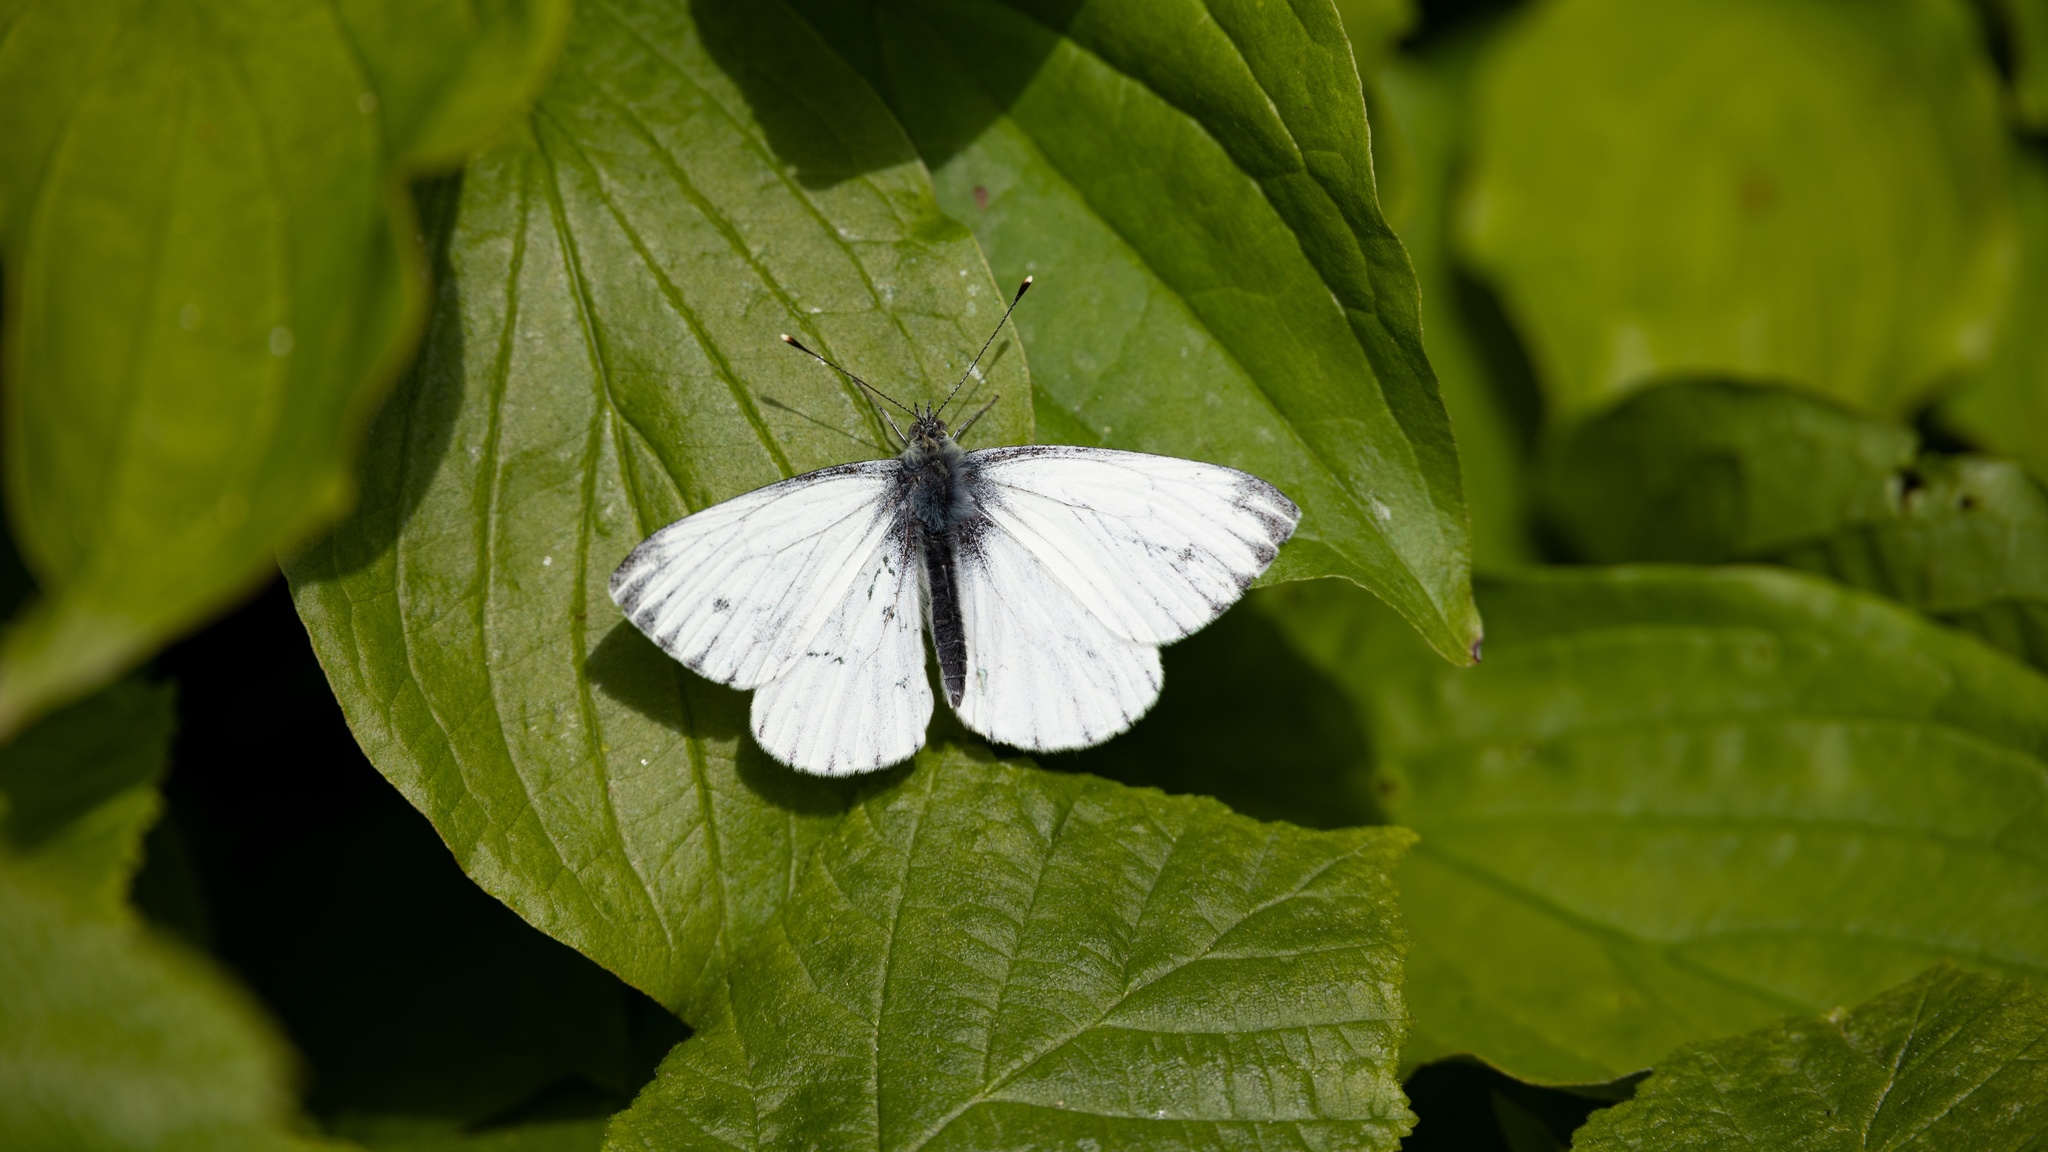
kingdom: Animalia
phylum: Arthropoda
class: Insecta
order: Lepidoptera
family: Pieridae
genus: Pieris
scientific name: Pieris napi
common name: Green-veined white
